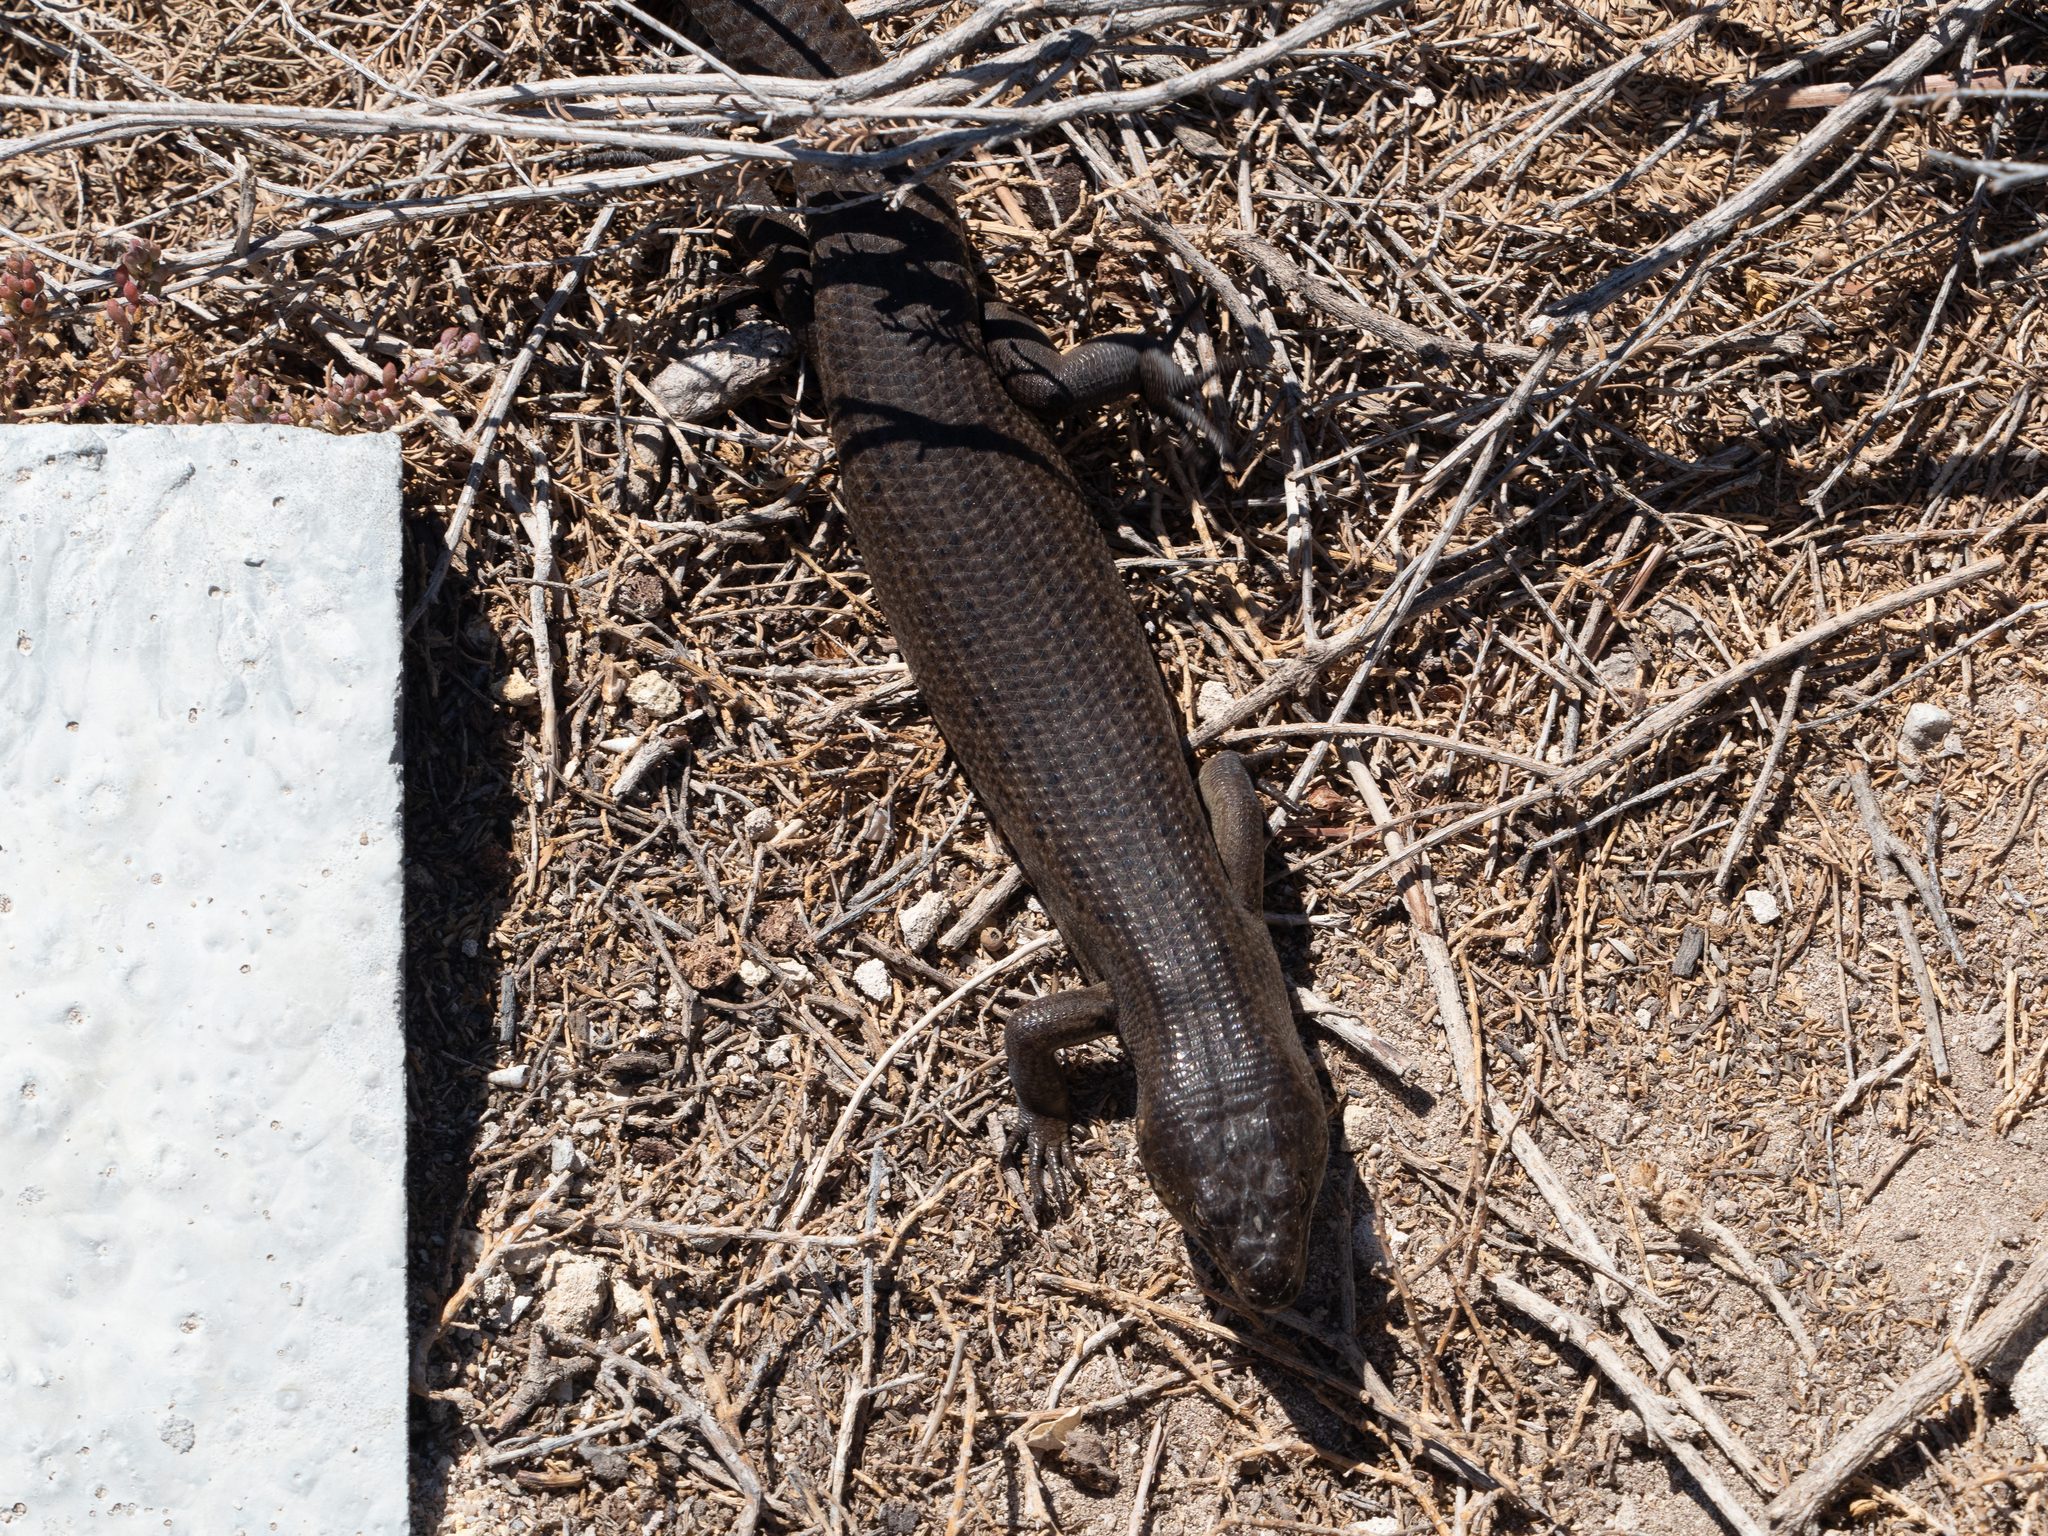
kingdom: Animalia
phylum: Chordata
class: Squamata
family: Scincidae
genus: Egernia
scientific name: Egernia kingii
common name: King's skink
